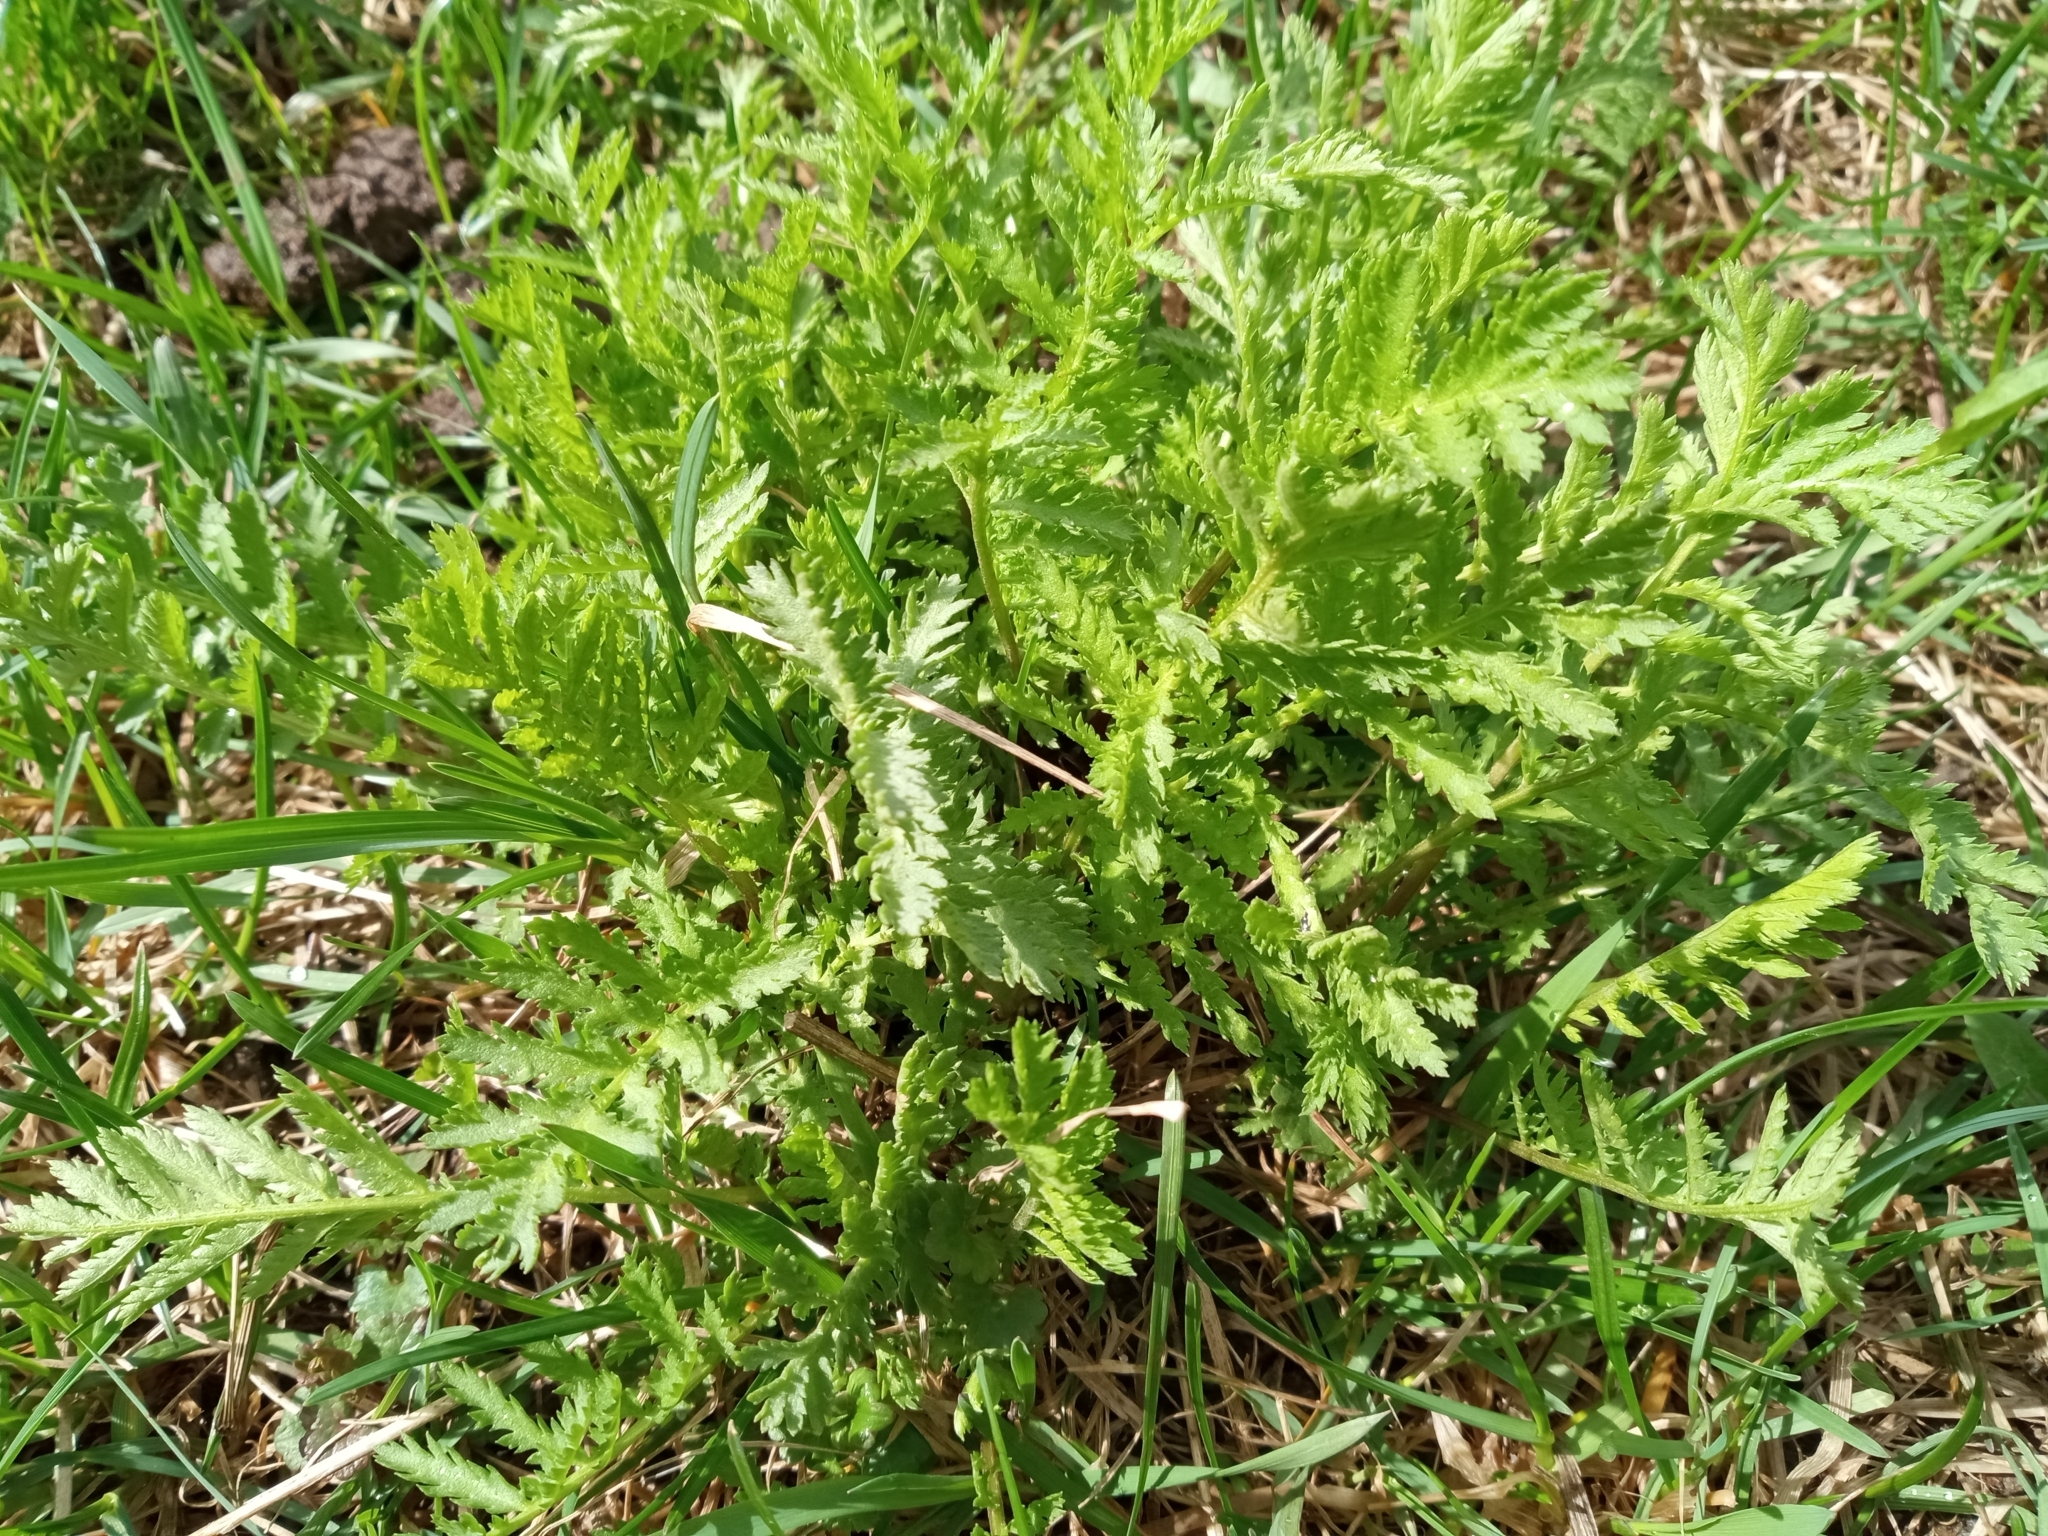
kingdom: Plantae
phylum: Tracheophyta
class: Magnoliopsida
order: Asterales
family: Asteraceae
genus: Tanacetum
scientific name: Tanacetum vulgare
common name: Common tansy
